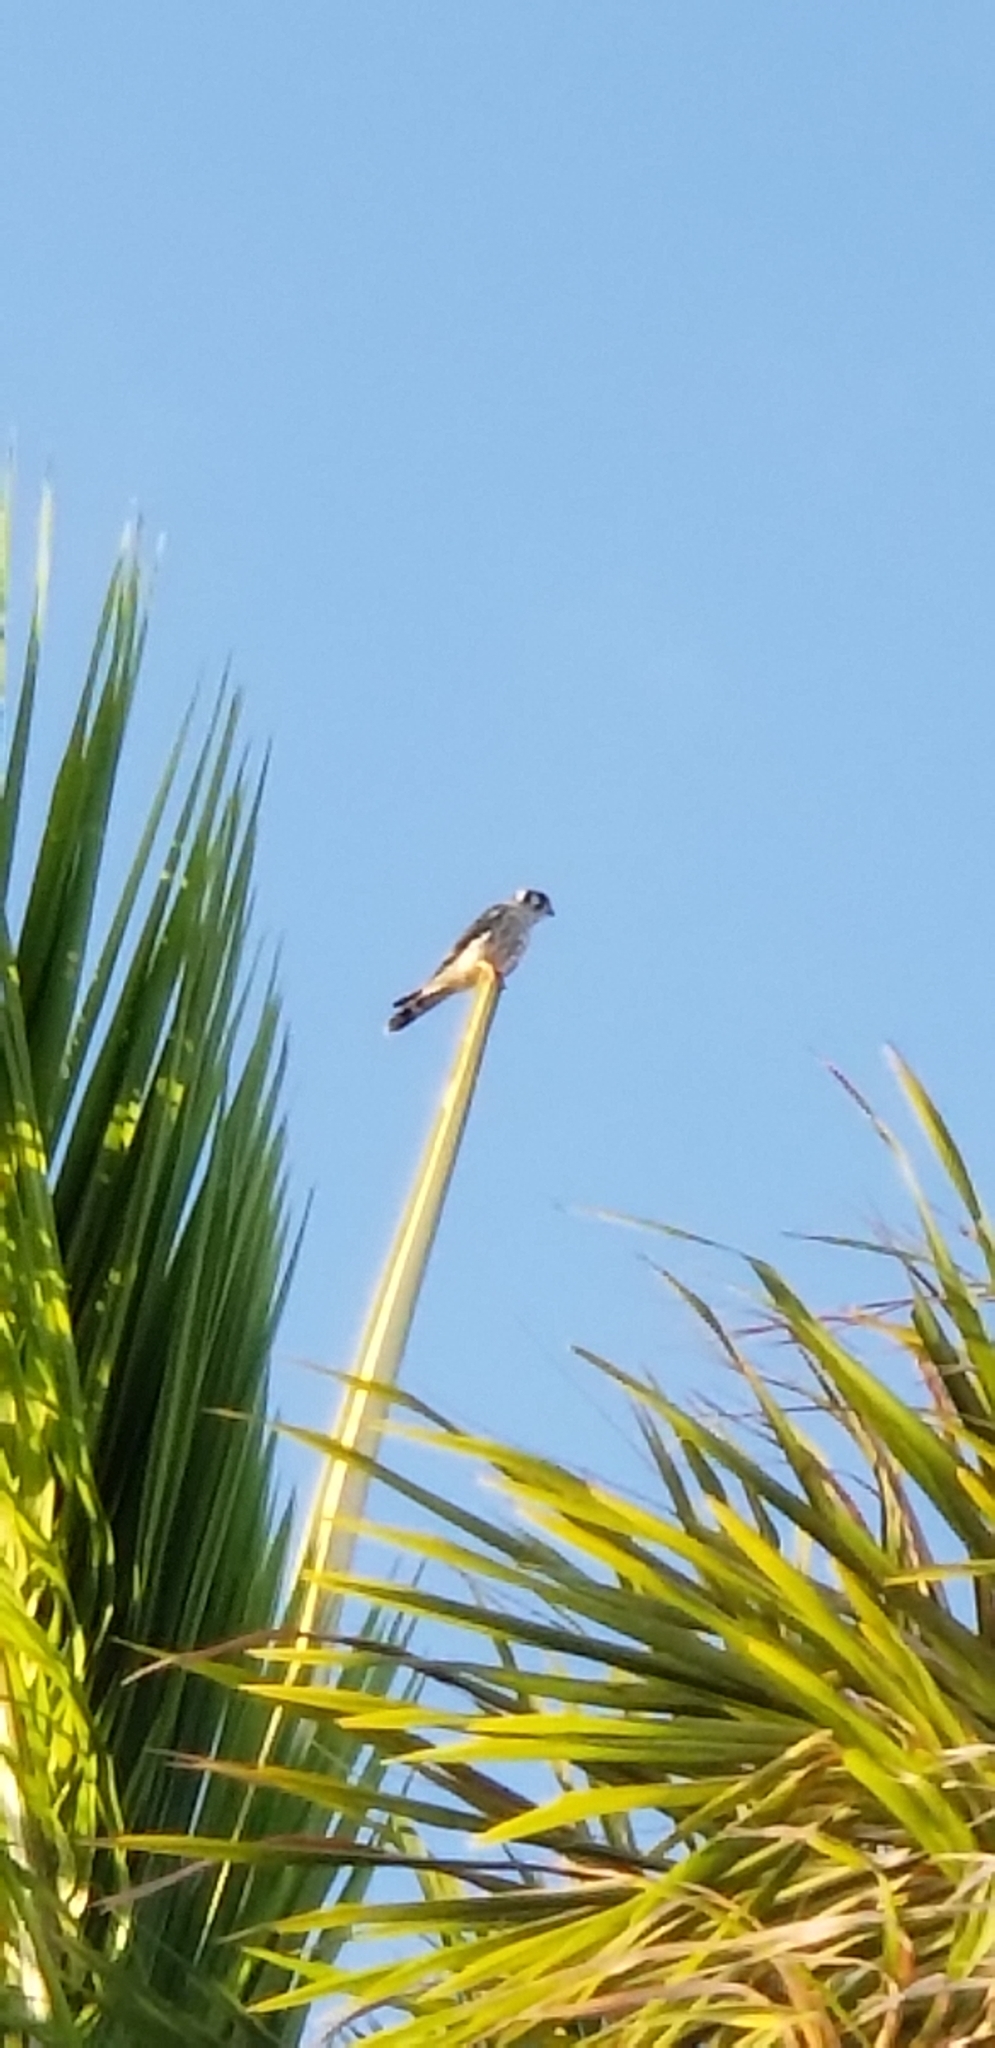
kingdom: Animalia
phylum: Chordata
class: Aves
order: Falconiformes
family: Falconidae
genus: Falco
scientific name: Falco sparverius
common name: American kestrel
